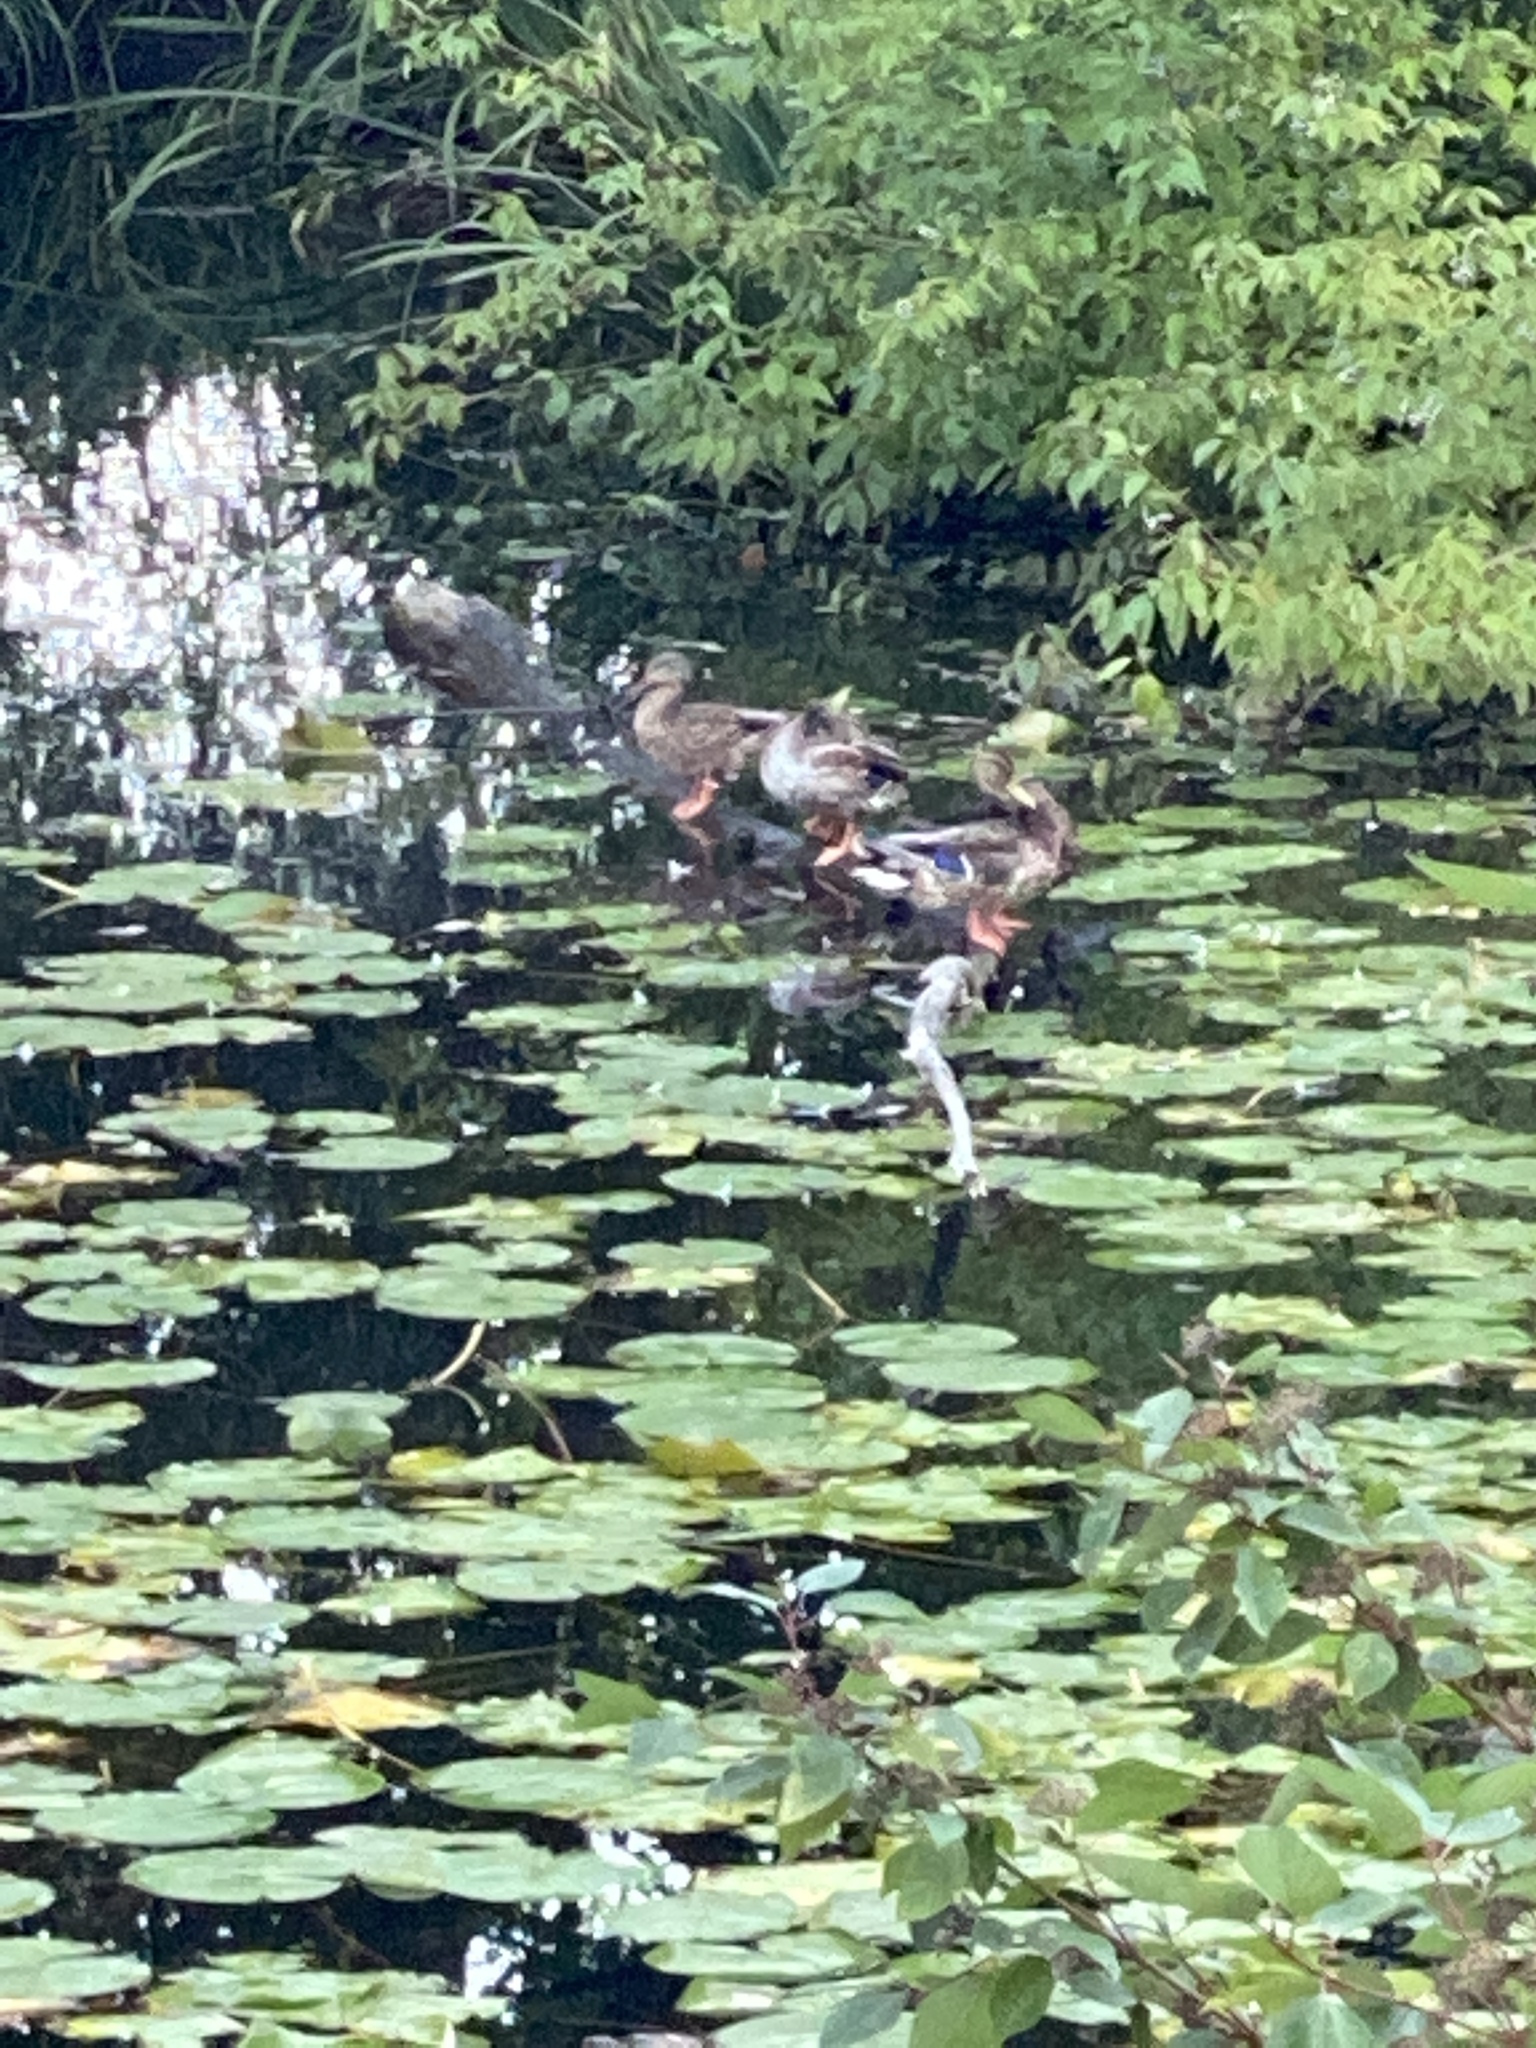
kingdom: Animalia
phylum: Chordata
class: Aves
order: Anseriformes
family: Anatidae
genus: Anas
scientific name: Anas platyrhynchos
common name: Mallard
